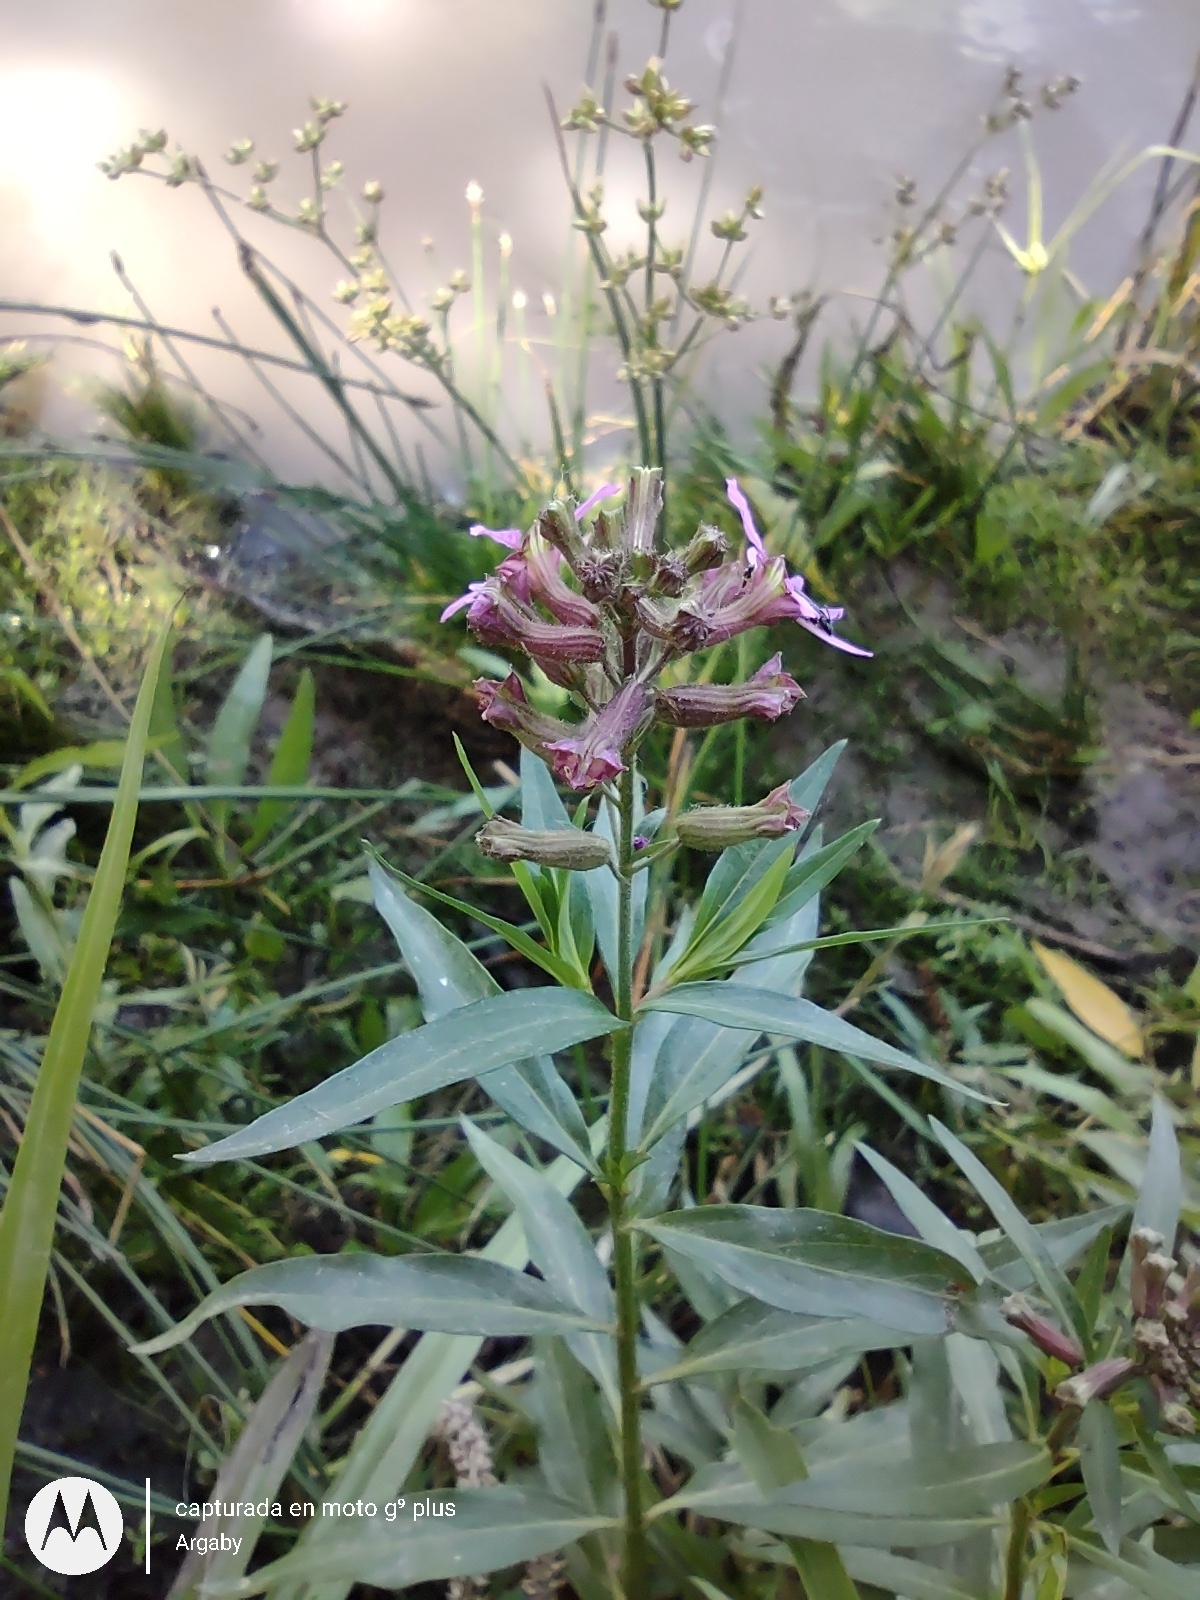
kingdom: Plantae
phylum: Tracheophyta
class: Magnoliopsida
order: Myrtales
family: Lythraceae
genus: Cuphea
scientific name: Cuphea fruticosa
